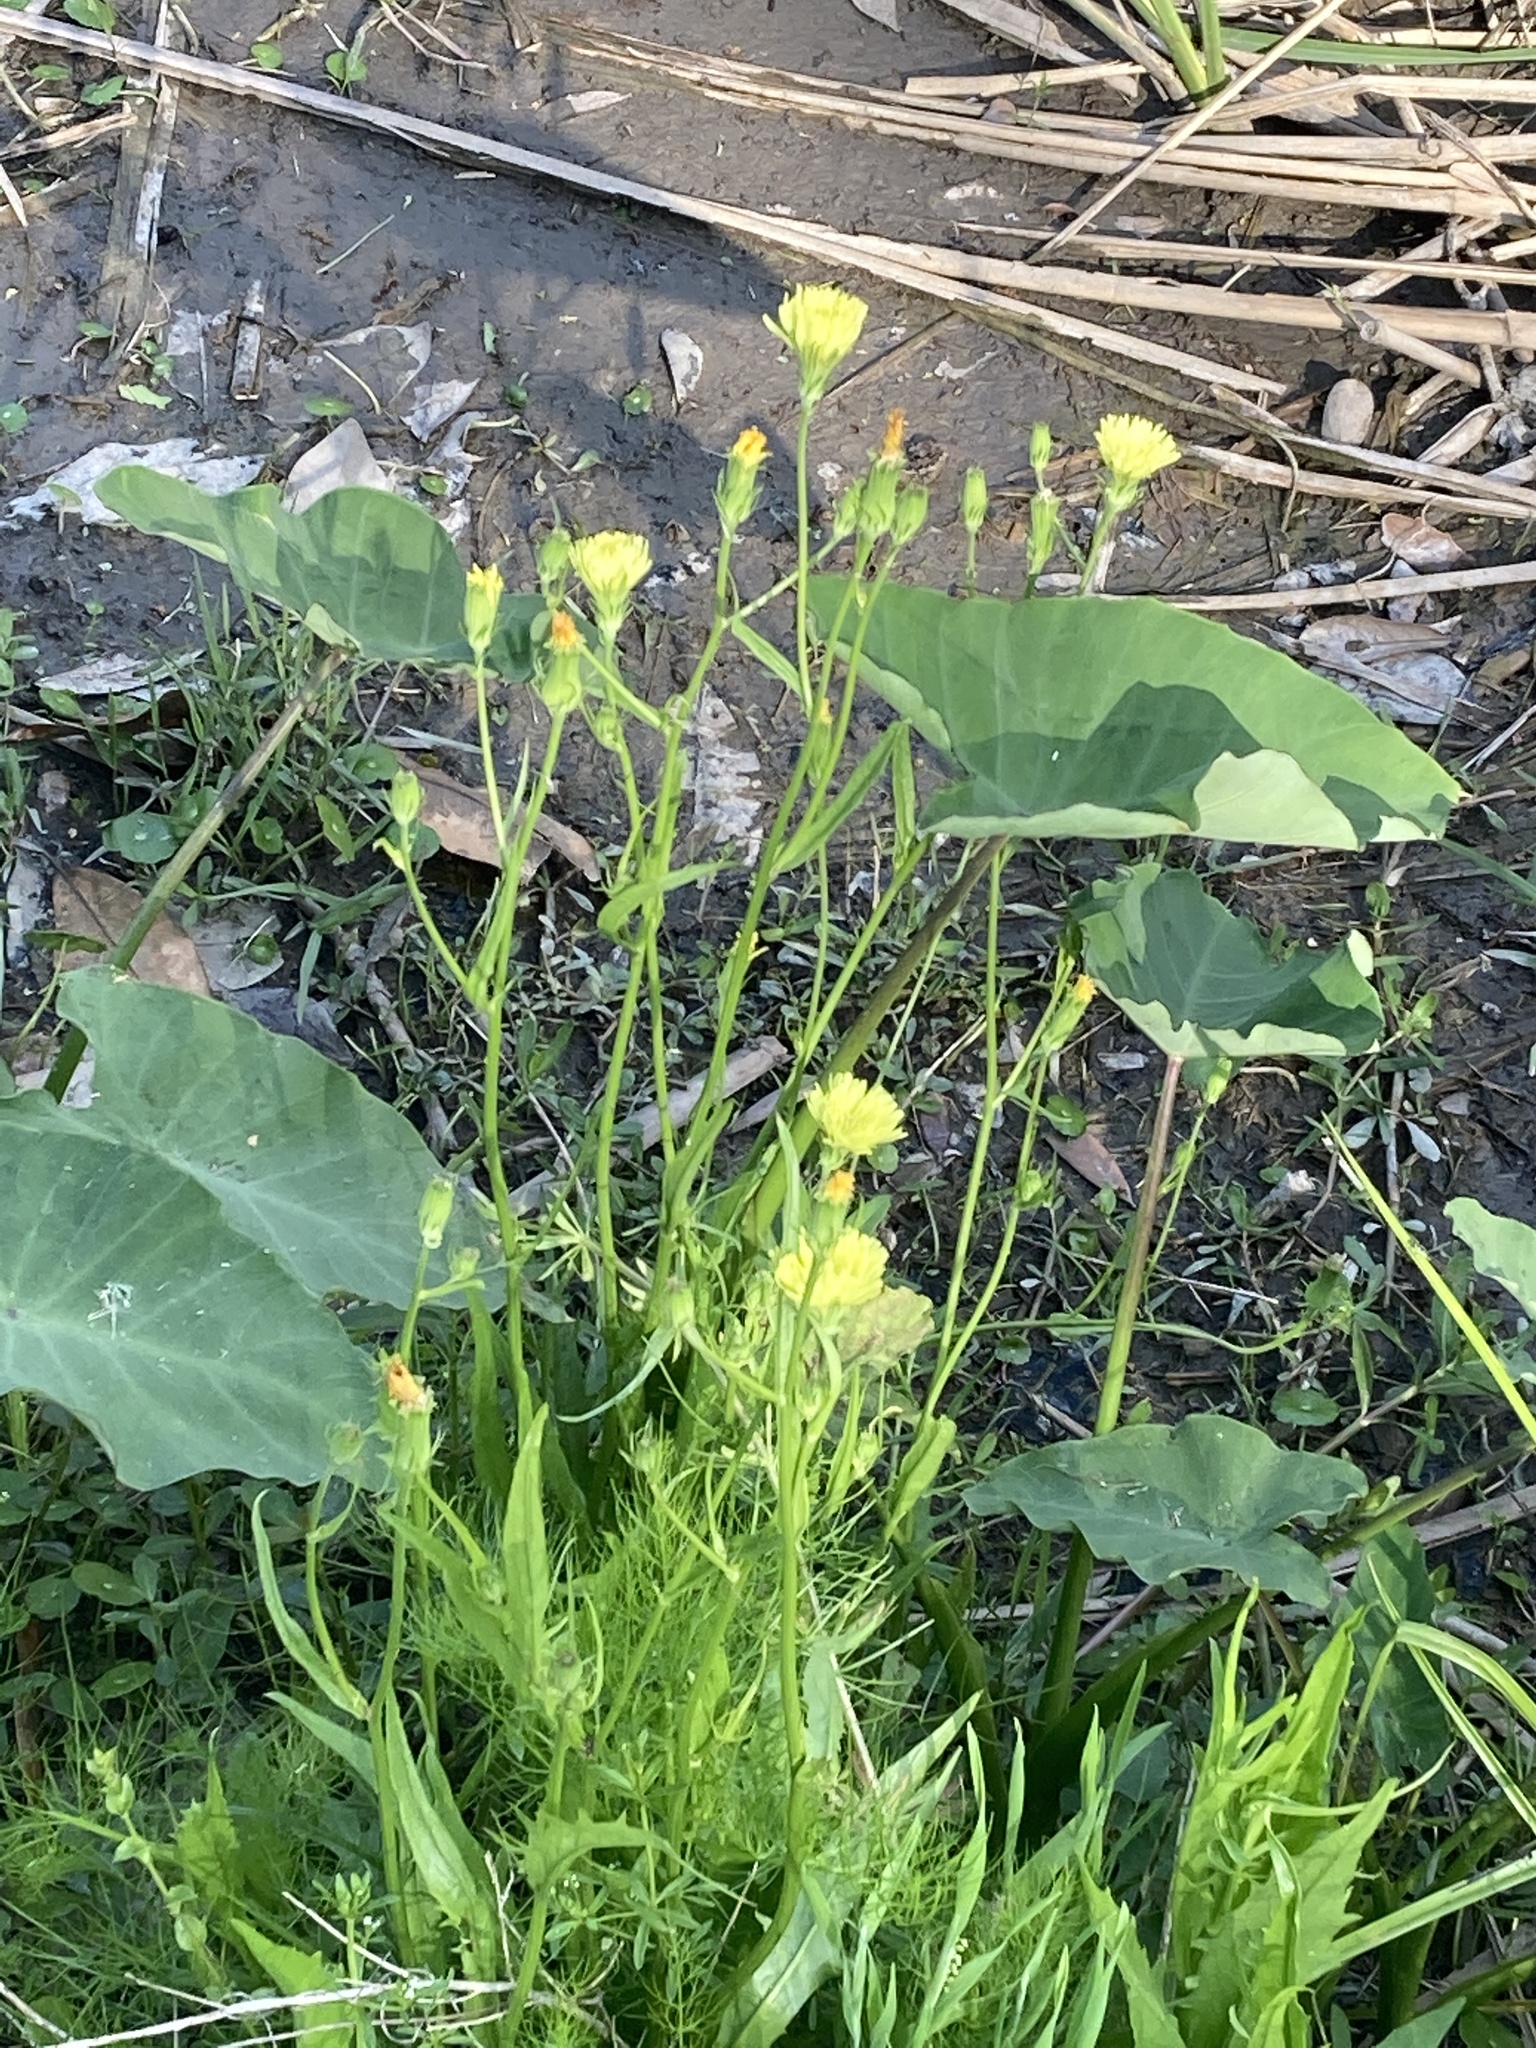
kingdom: Plantae
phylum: Tracheophyta
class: Magnoliopsida
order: Asterales
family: Asteraceae
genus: Pyrrhopappus
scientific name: Pyrrhopappus carolinianus
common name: Carolina desert-chicory
